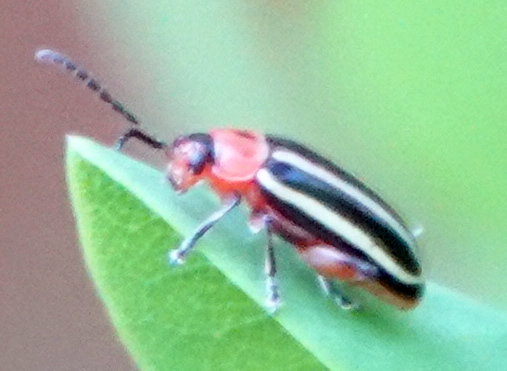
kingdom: Animalia
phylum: Arthropoda
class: Insecta
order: Coleoptera
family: Chrysomelidae
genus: Disonycha
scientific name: Disonycha glabrata
